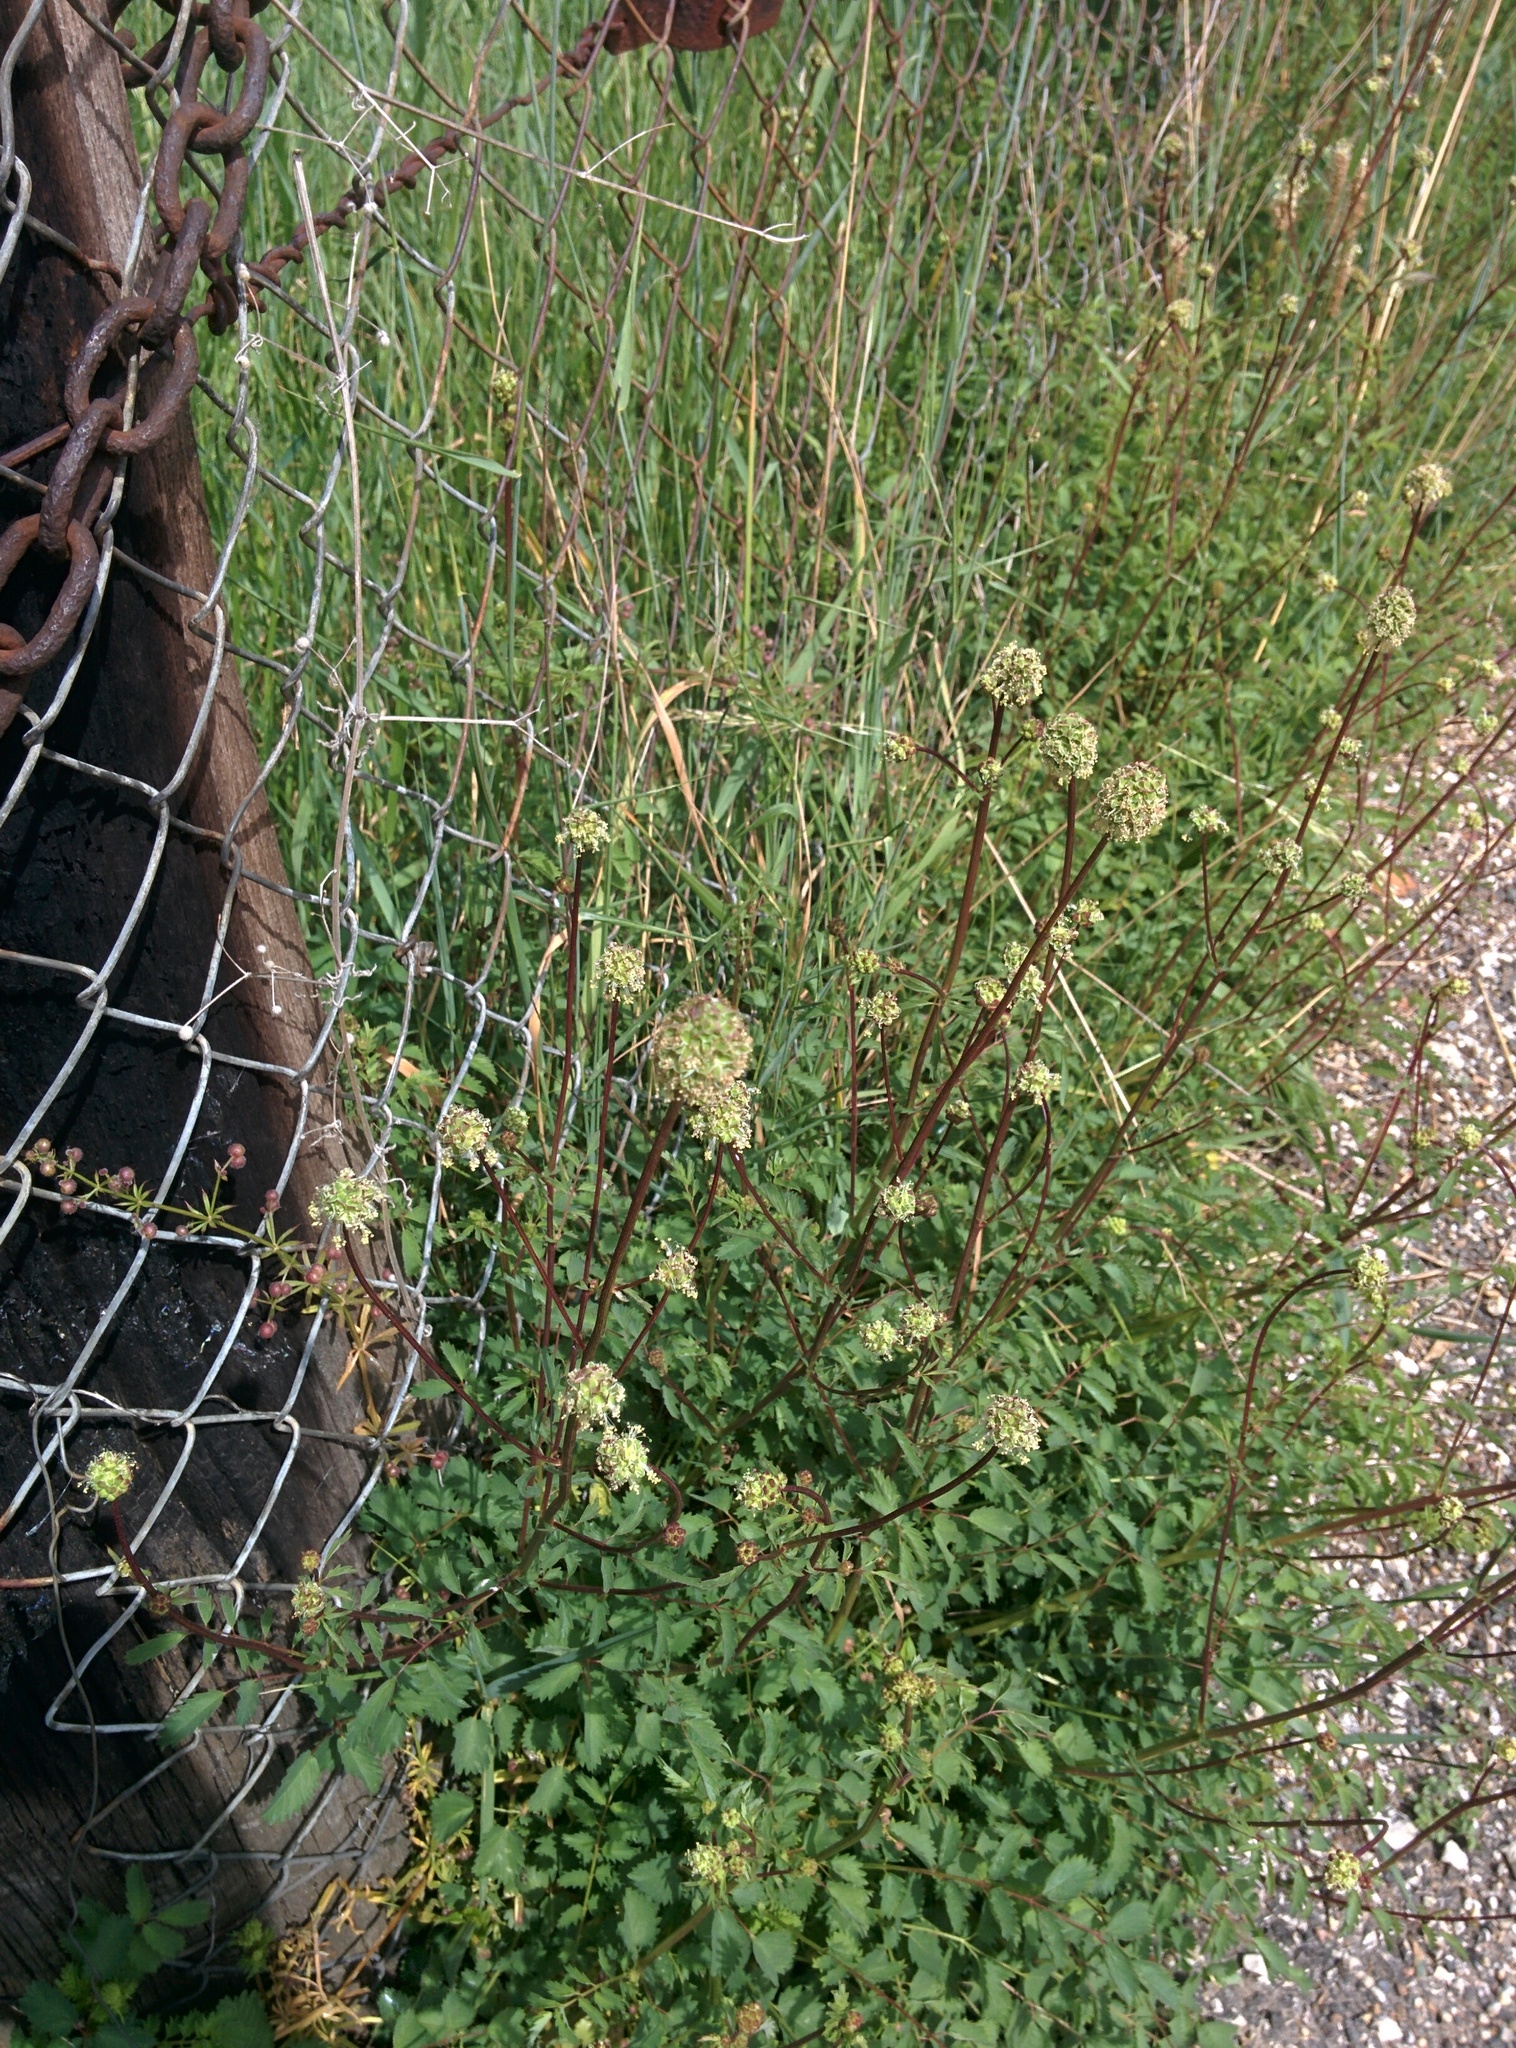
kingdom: Plantae
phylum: Tracheophyta
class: Magnoliopsida
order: Rosales
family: Rosaceae
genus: Poterium
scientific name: Poterium sanguisorba
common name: Salad burnet
